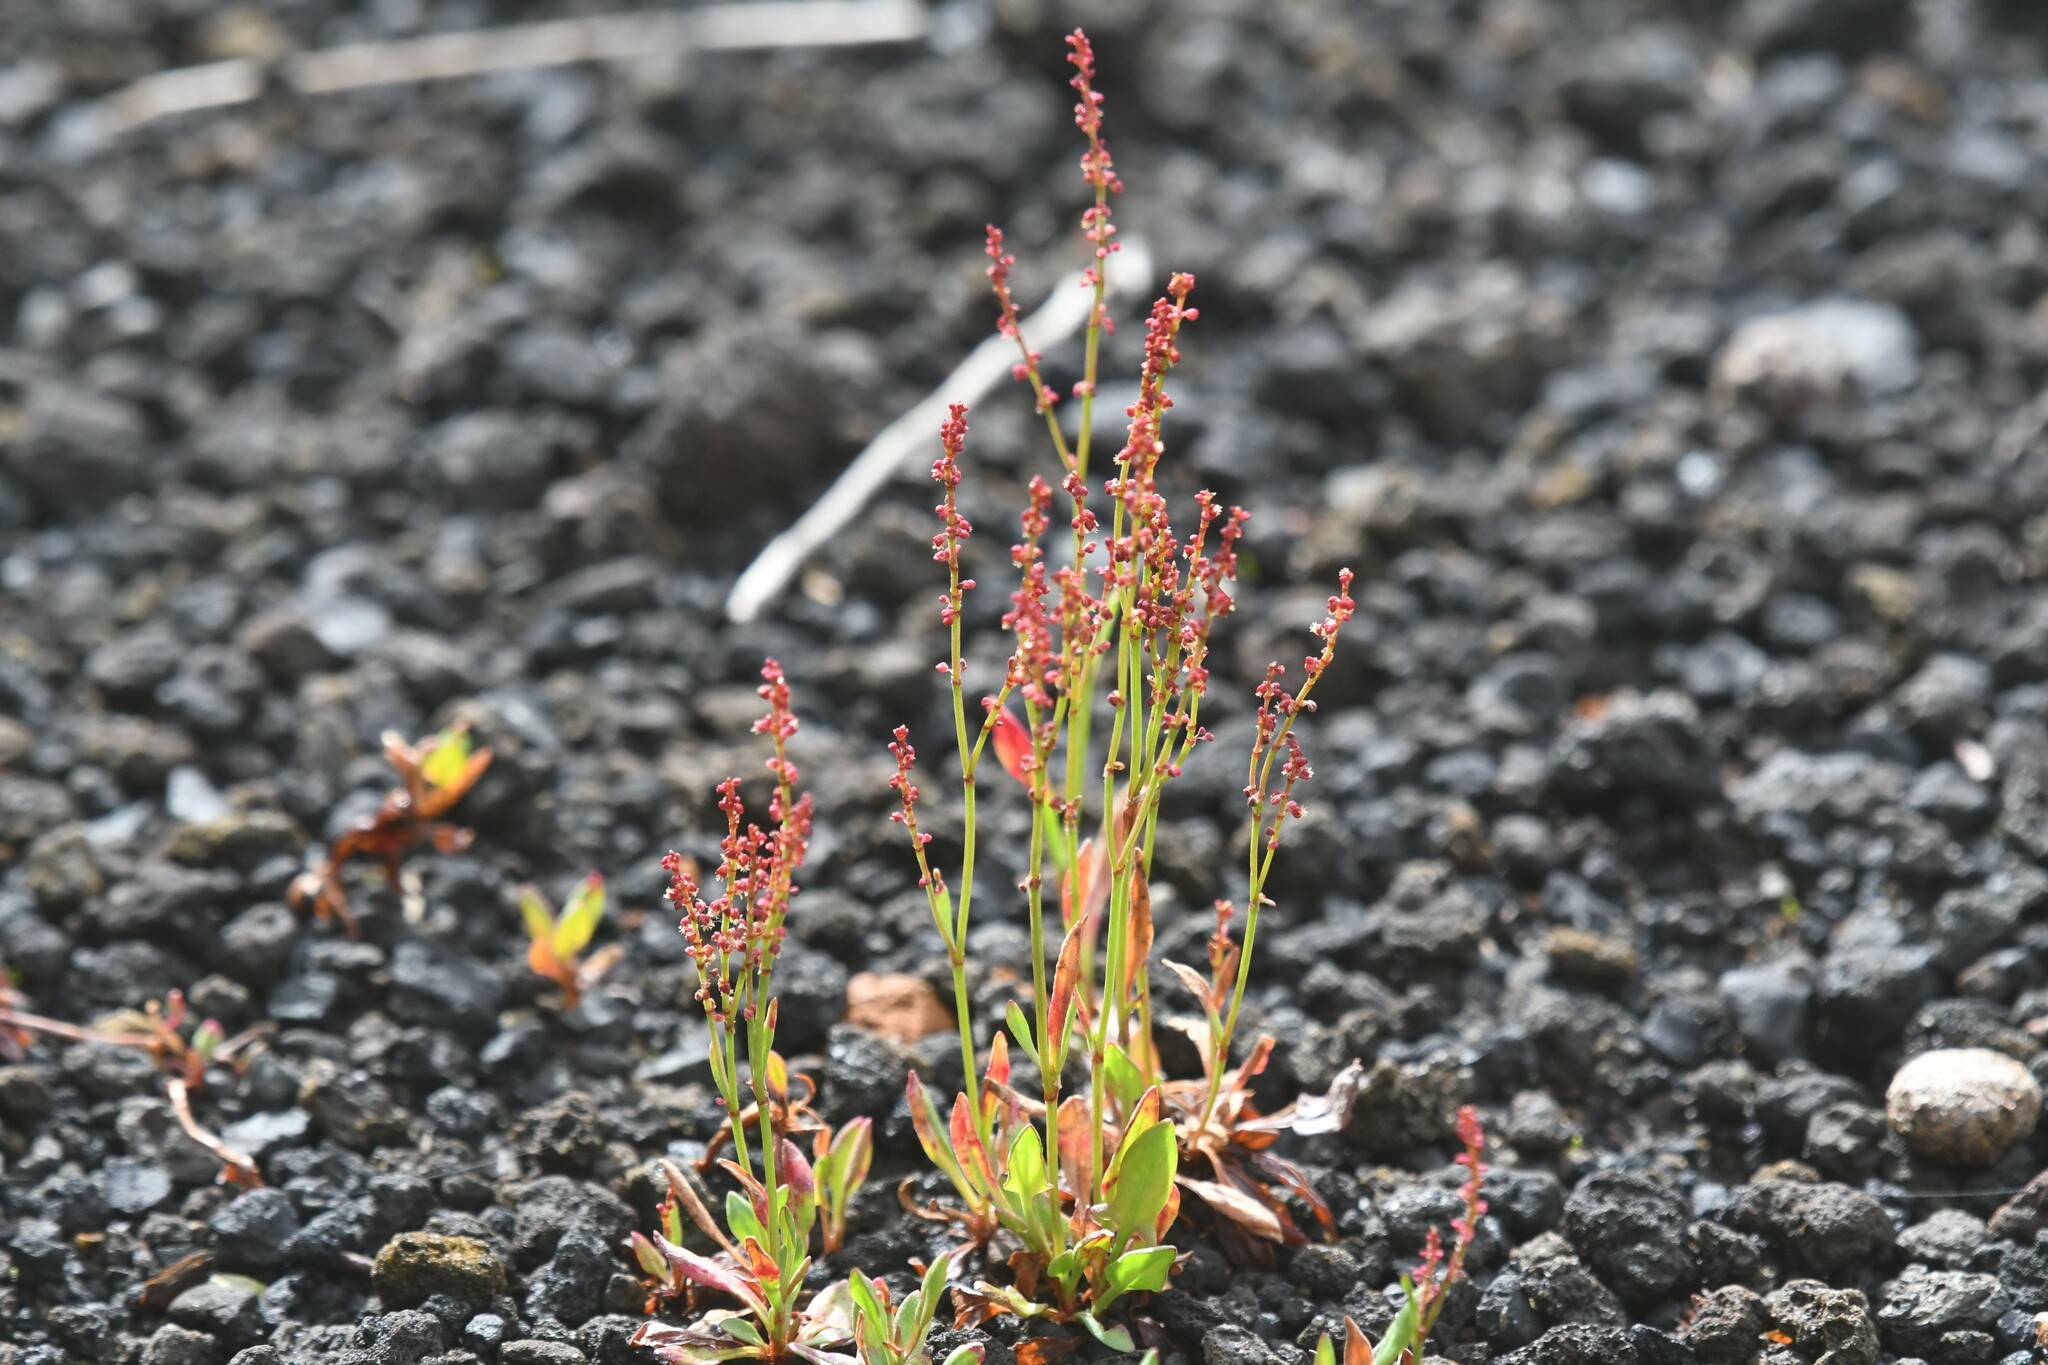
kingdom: Plantae
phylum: Tracheophyta
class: Magnoliopsida
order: Caryophyllales
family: Polygonaceae
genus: Rumex
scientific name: Rumex acetosella
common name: Common sheep sorrel
